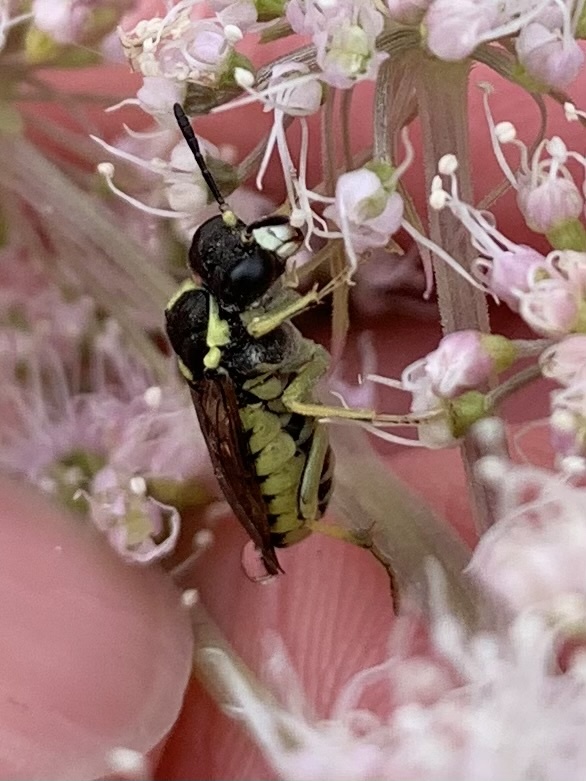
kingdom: Animalia
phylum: Arthropoda
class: Insecta
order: Hymenoptera
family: Tenthredinidae
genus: Tenthredo
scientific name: Tenthredo notha
